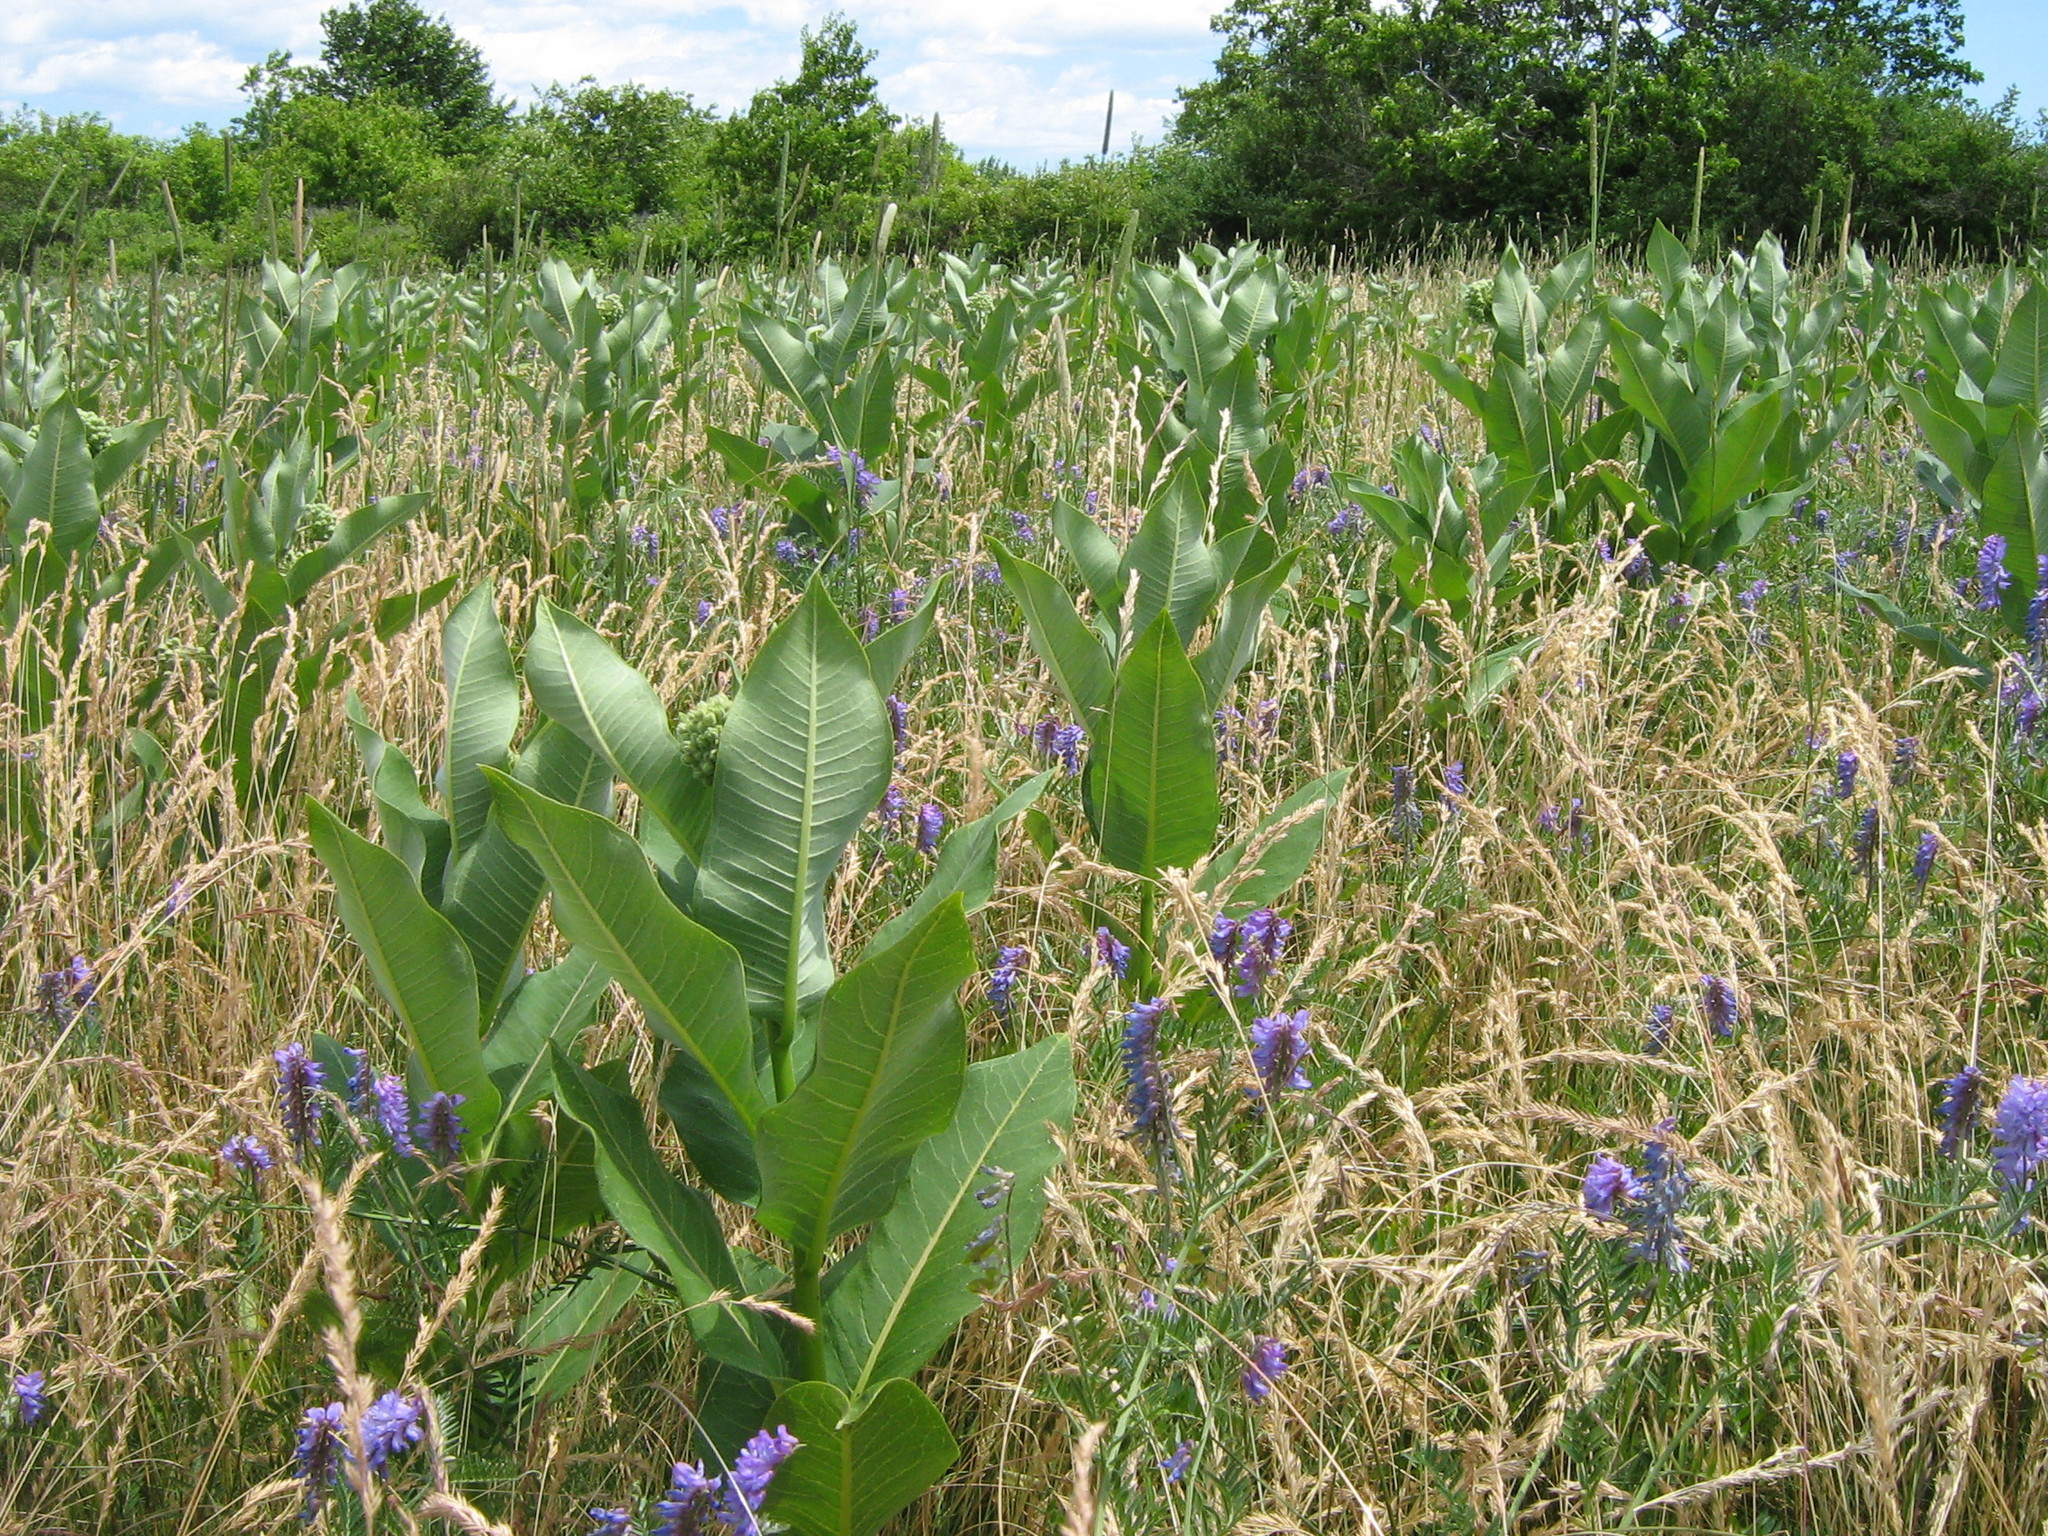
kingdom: Plantae
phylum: Tracheophyta
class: Magnoliopsida
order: Gentianales
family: Apocynaceae
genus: Asclepias
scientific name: Asclepias syriaca
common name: Common milkweed
